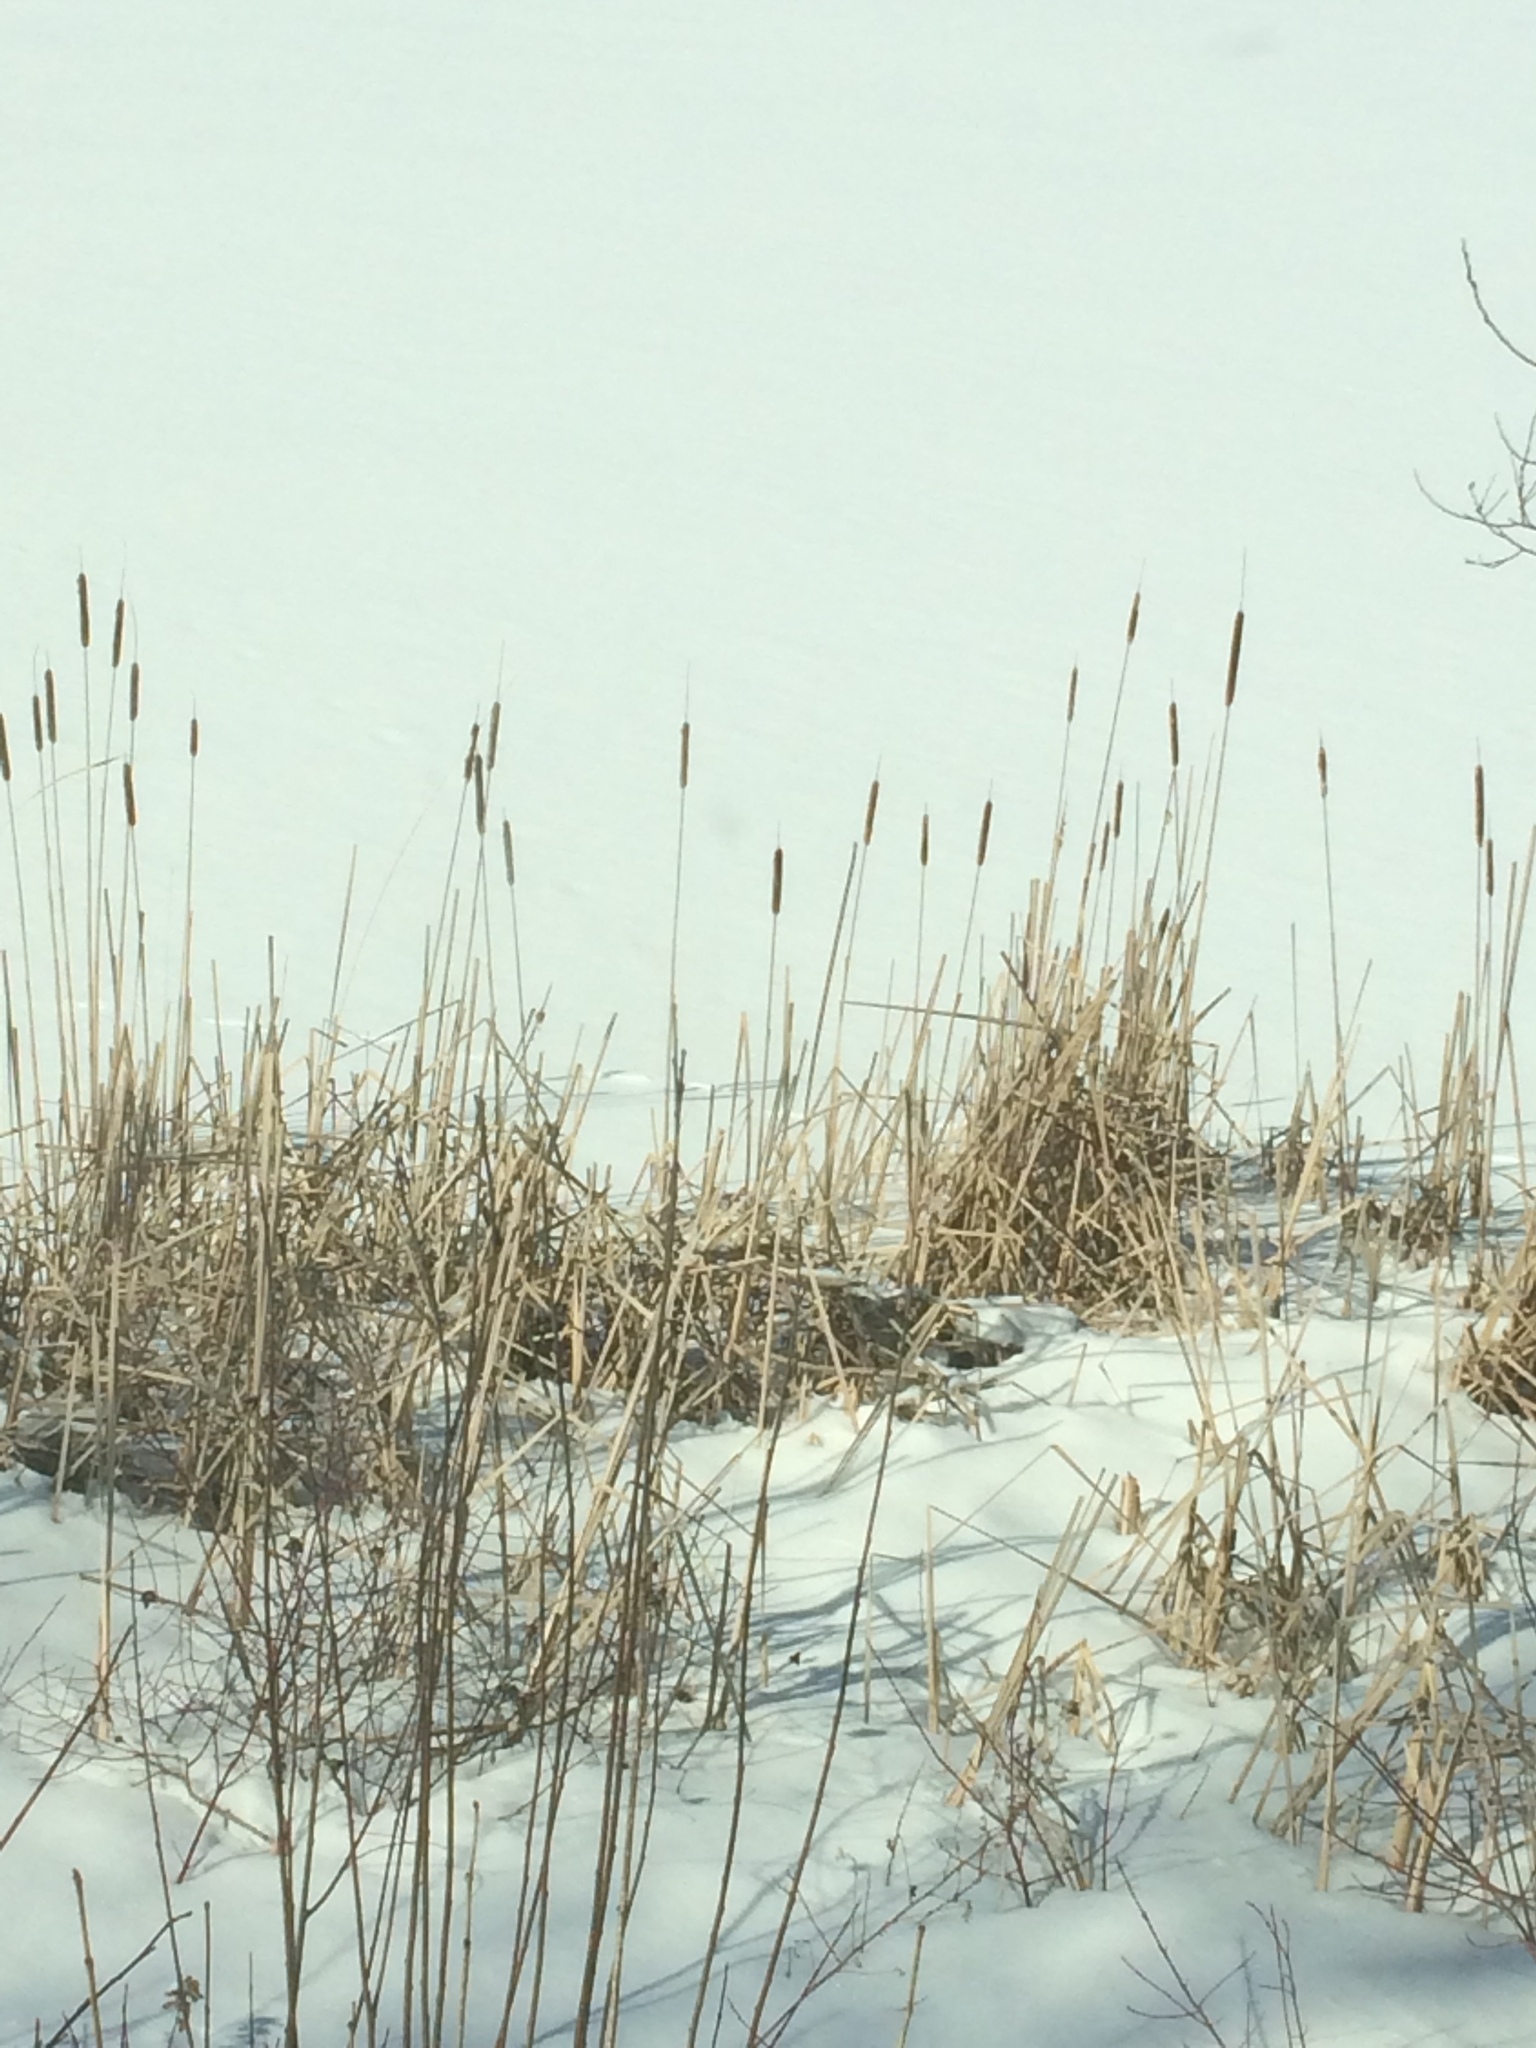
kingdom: Plantae
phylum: Tracheophyta
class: Liliopsida
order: Poales
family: Typhaceae
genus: Typha
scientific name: Typha
